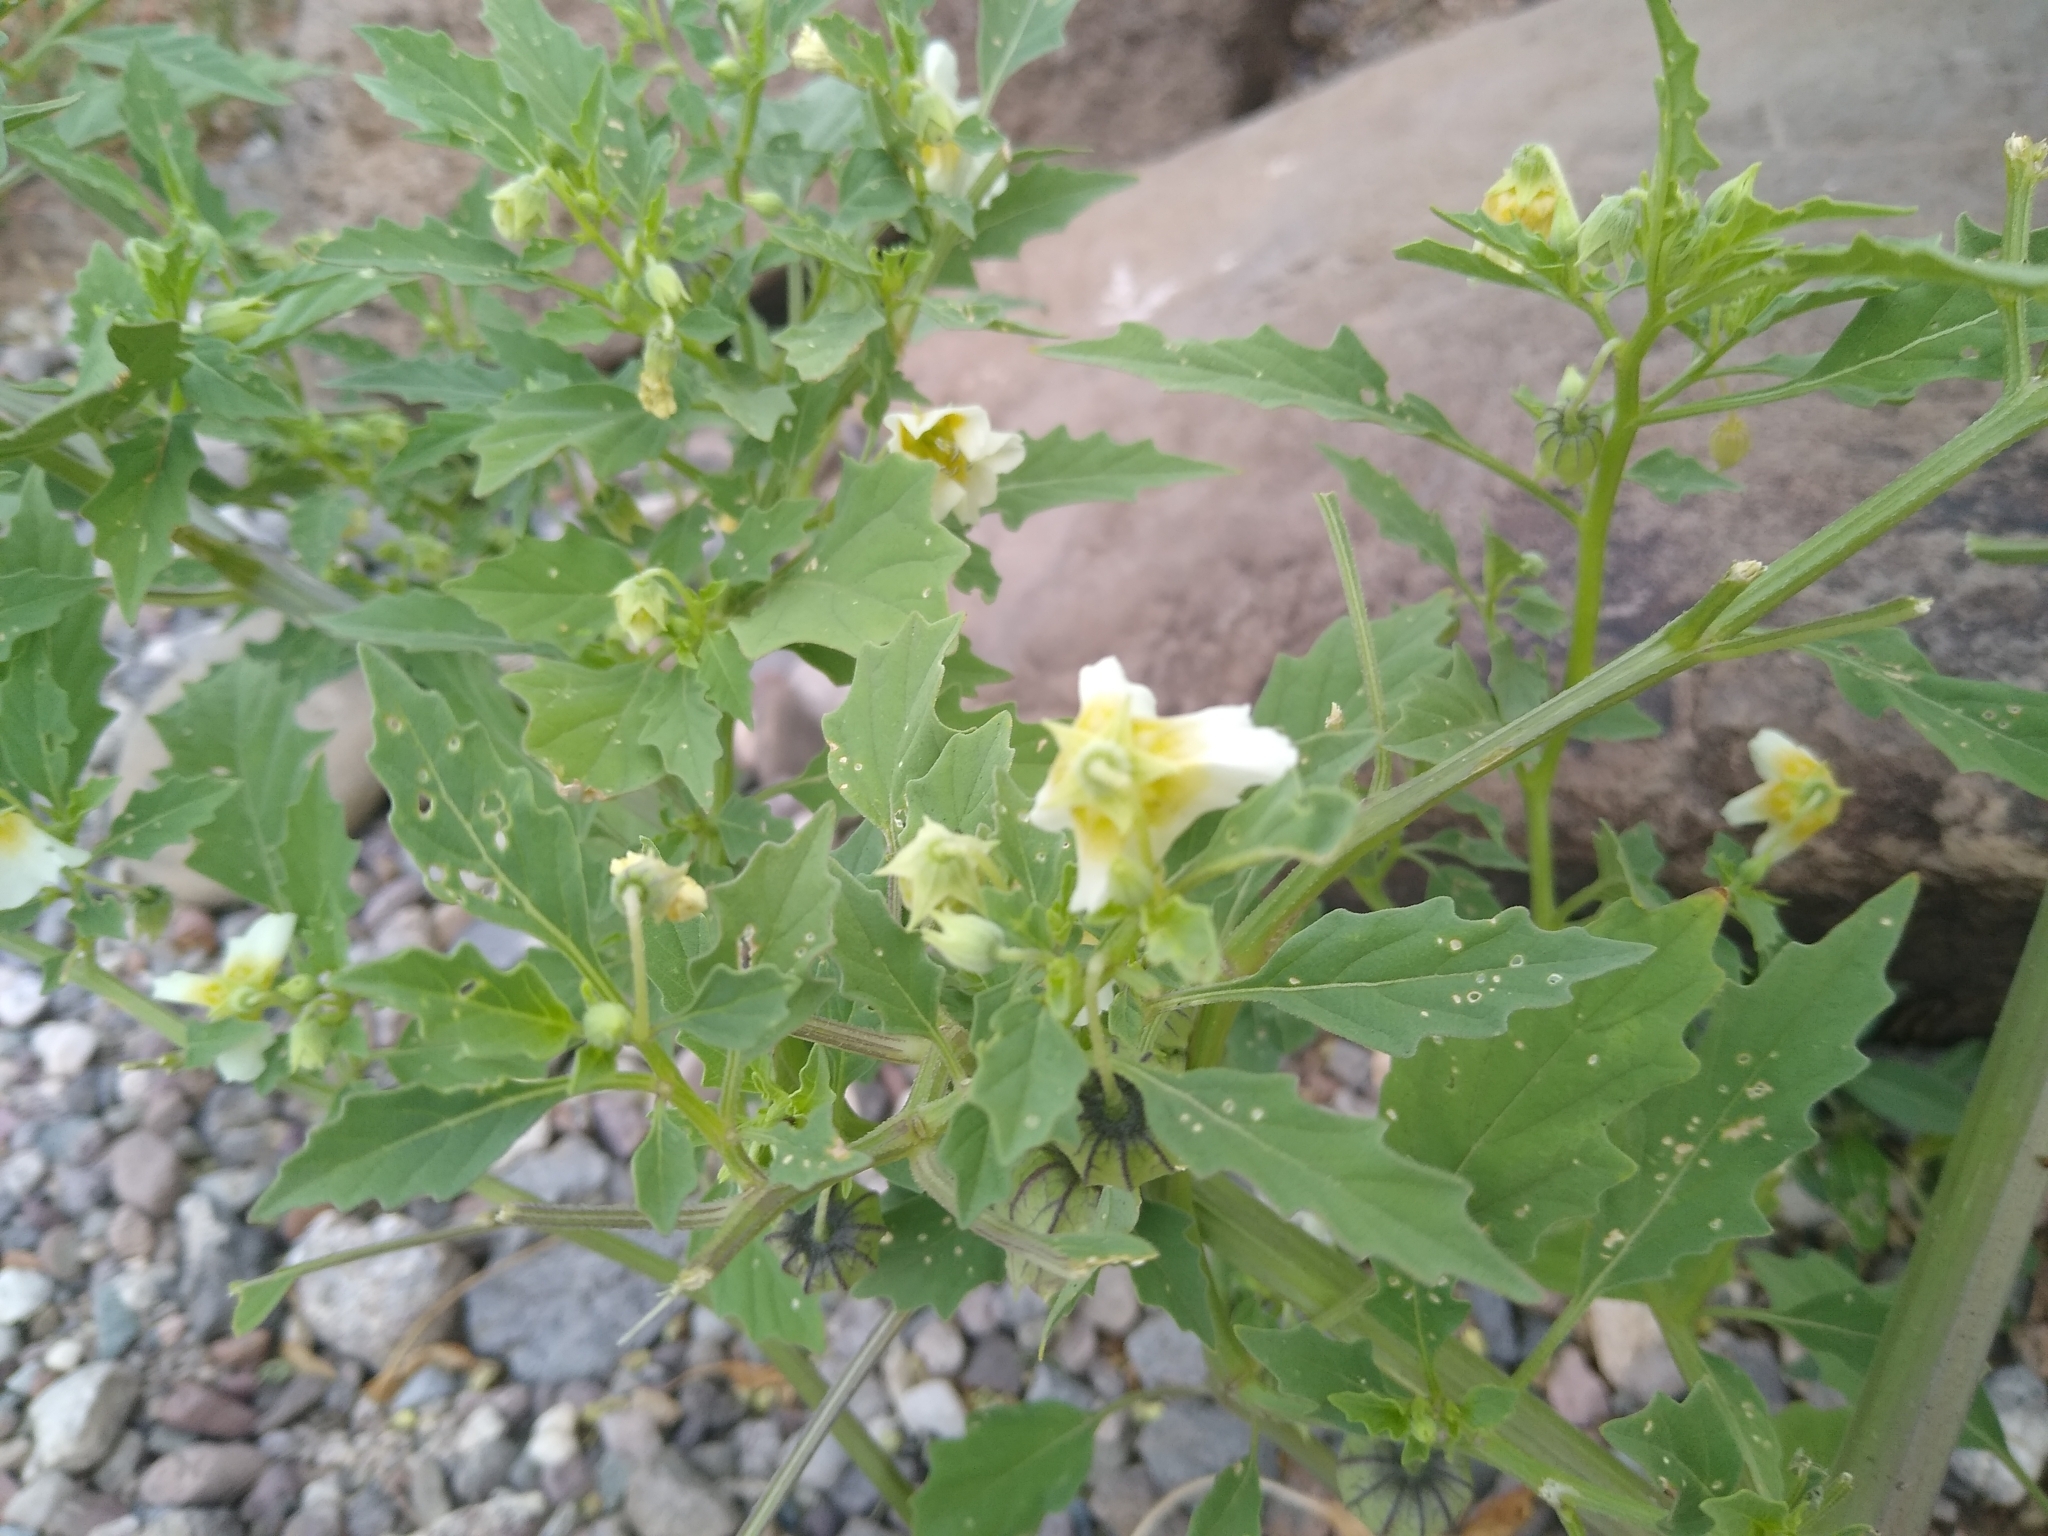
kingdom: Plantae
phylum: Tracheophyta
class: Magnoliopsida
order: Solanales
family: Solanaceae
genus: Physalis
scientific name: Physalis acutifolia
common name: Wright's ground-cherry
